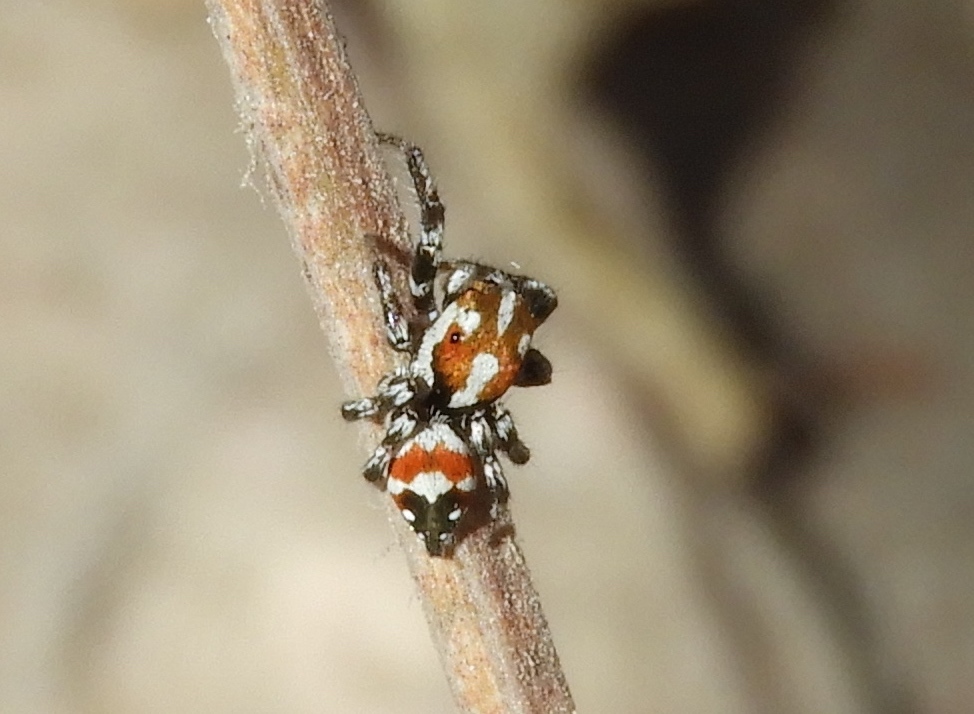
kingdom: Animalia
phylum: Arthropoda
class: Arachnida
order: Araneae
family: Salticidae
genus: Nycerella
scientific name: Nycerella delecta
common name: Jumping spiders
